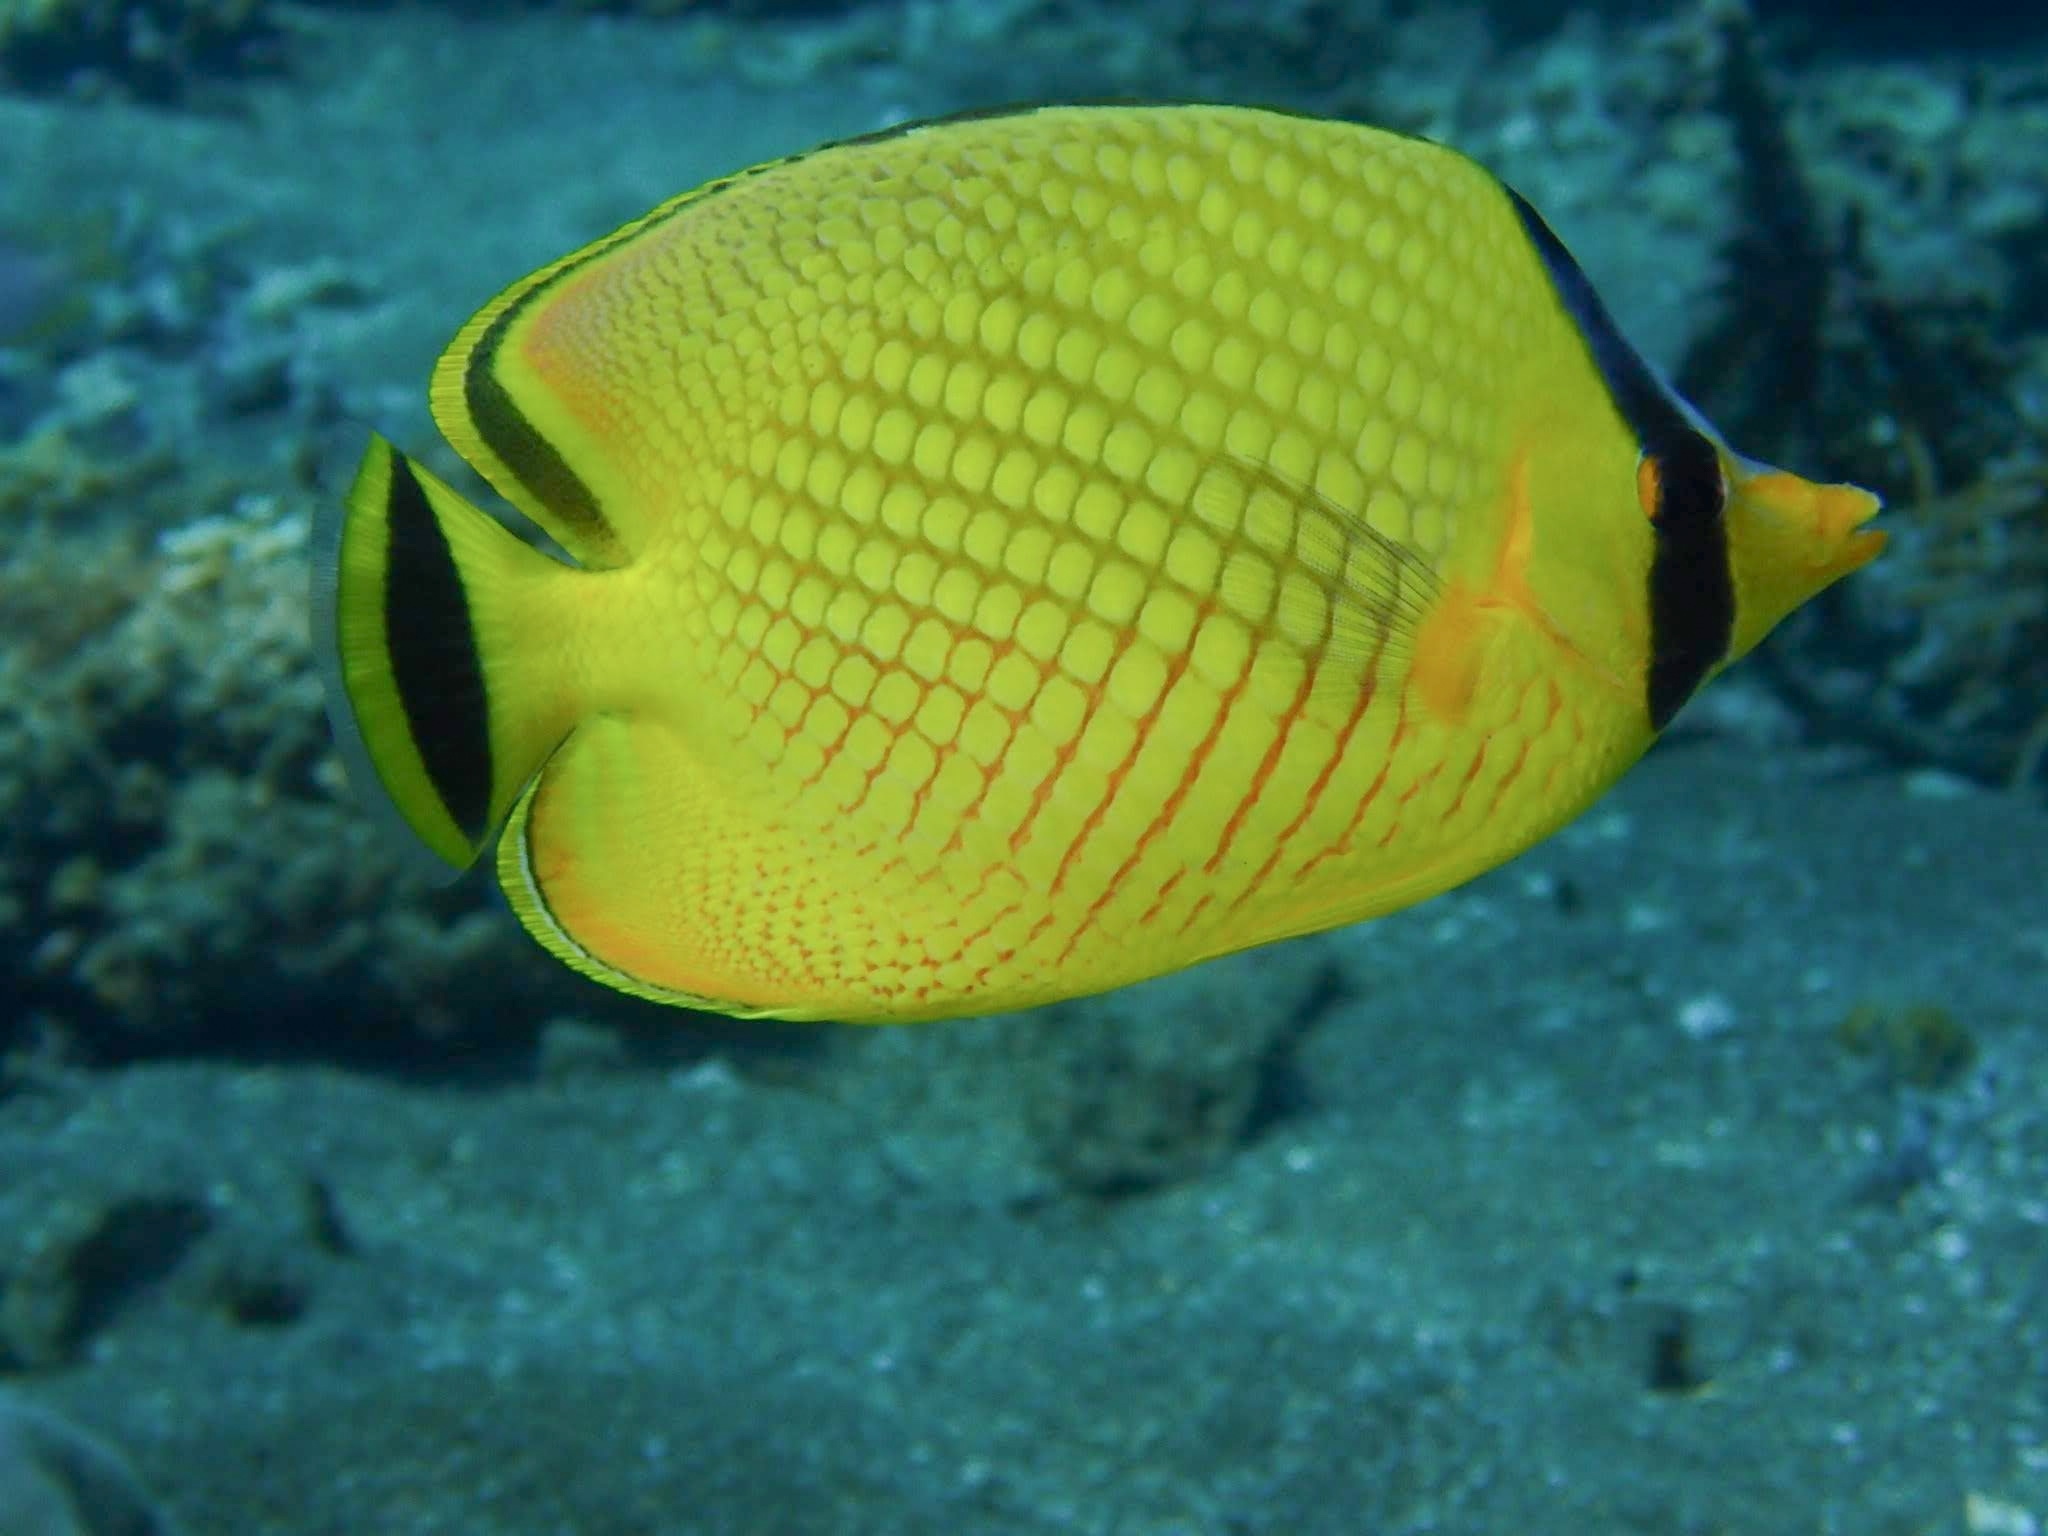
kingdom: Animalia
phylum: Chordata
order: Perciformes
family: Chaetodontidae
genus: Chaetodon
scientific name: Chaetodon rafflesii
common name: Latticed butterflyfish
